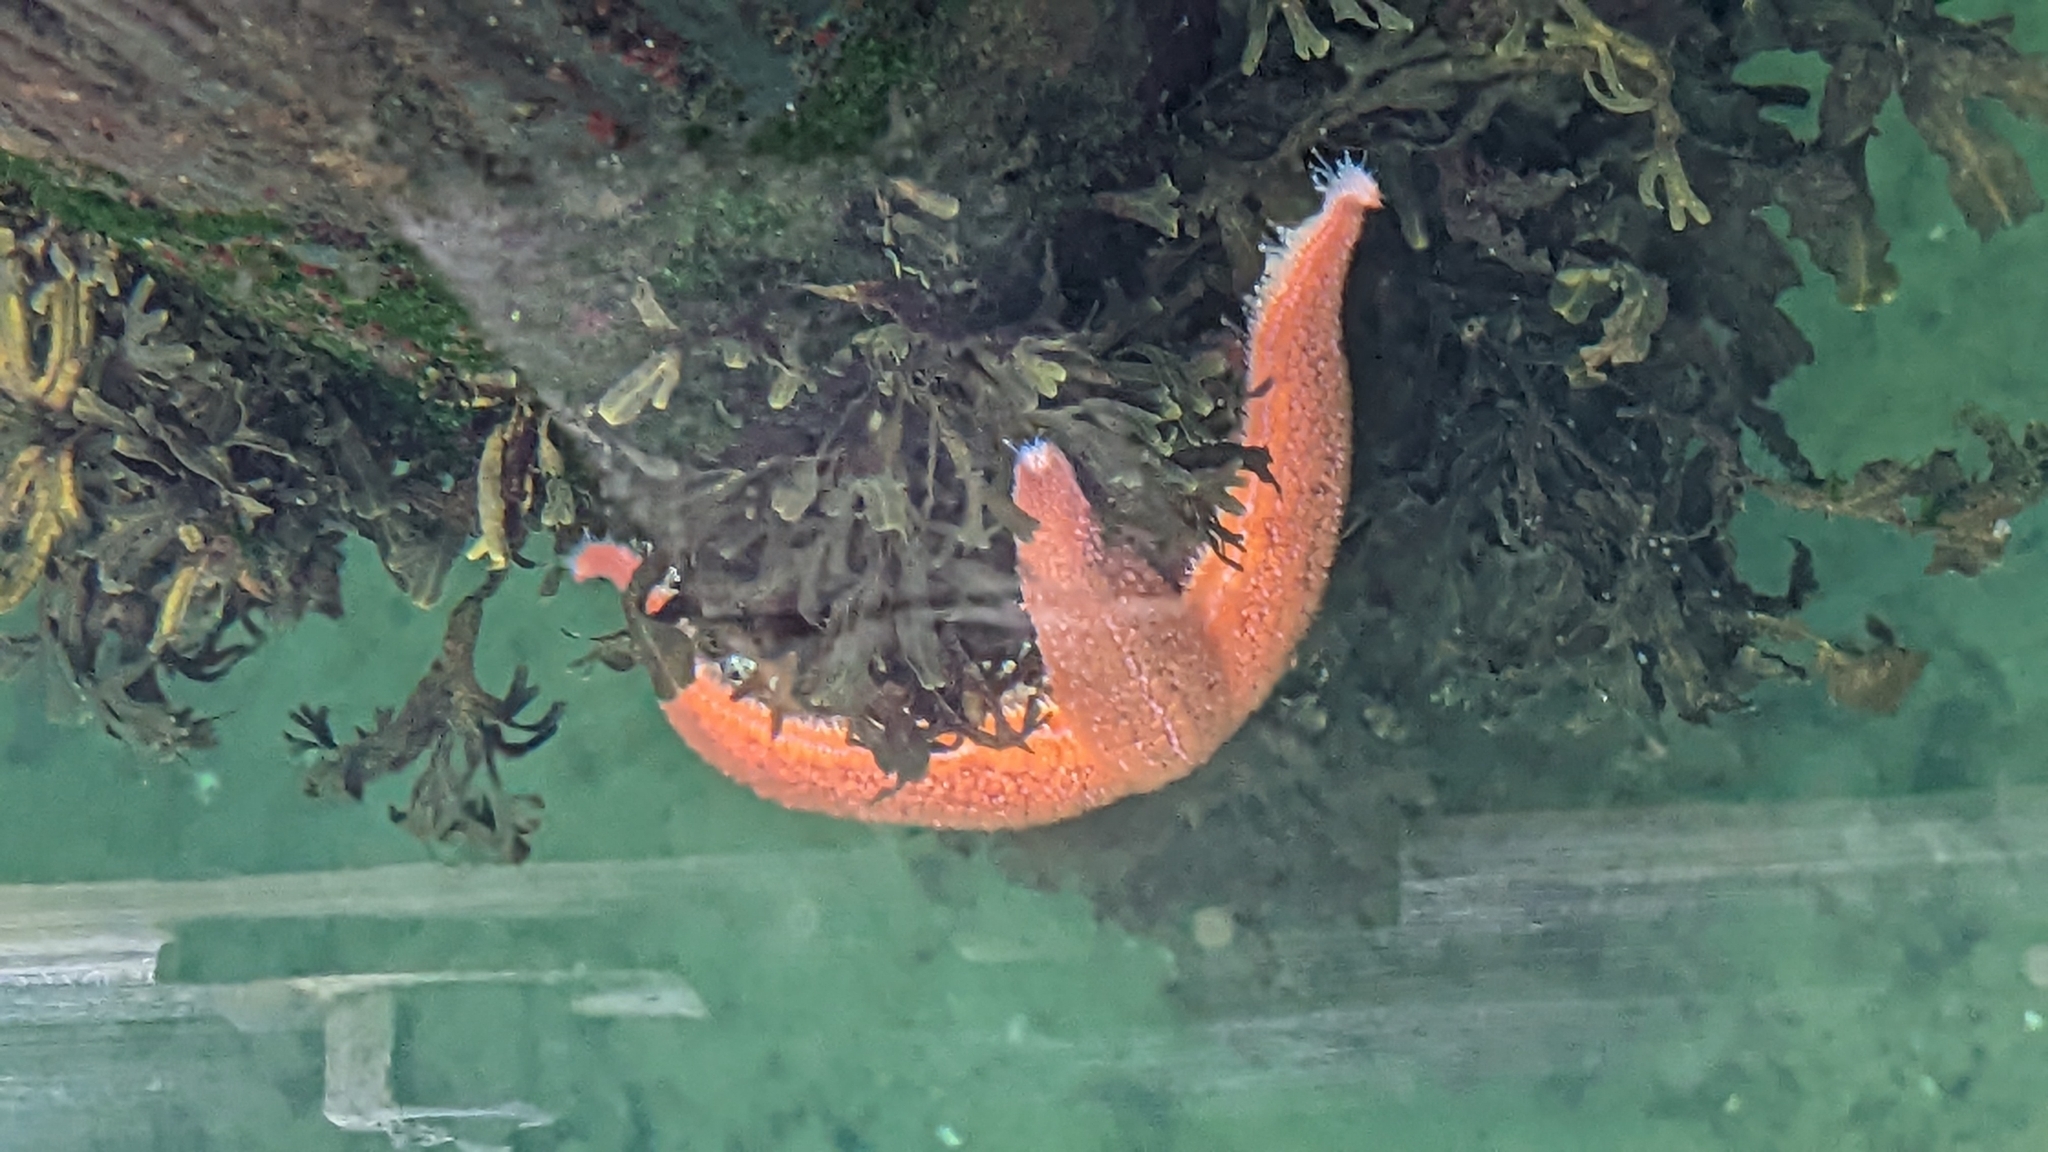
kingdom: Animalia
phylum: Echinodermata
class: Asteroidea
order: Forcipulatida
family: Asteriidae
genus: Asterias
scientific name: Asterias rubens
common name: Common starfish
